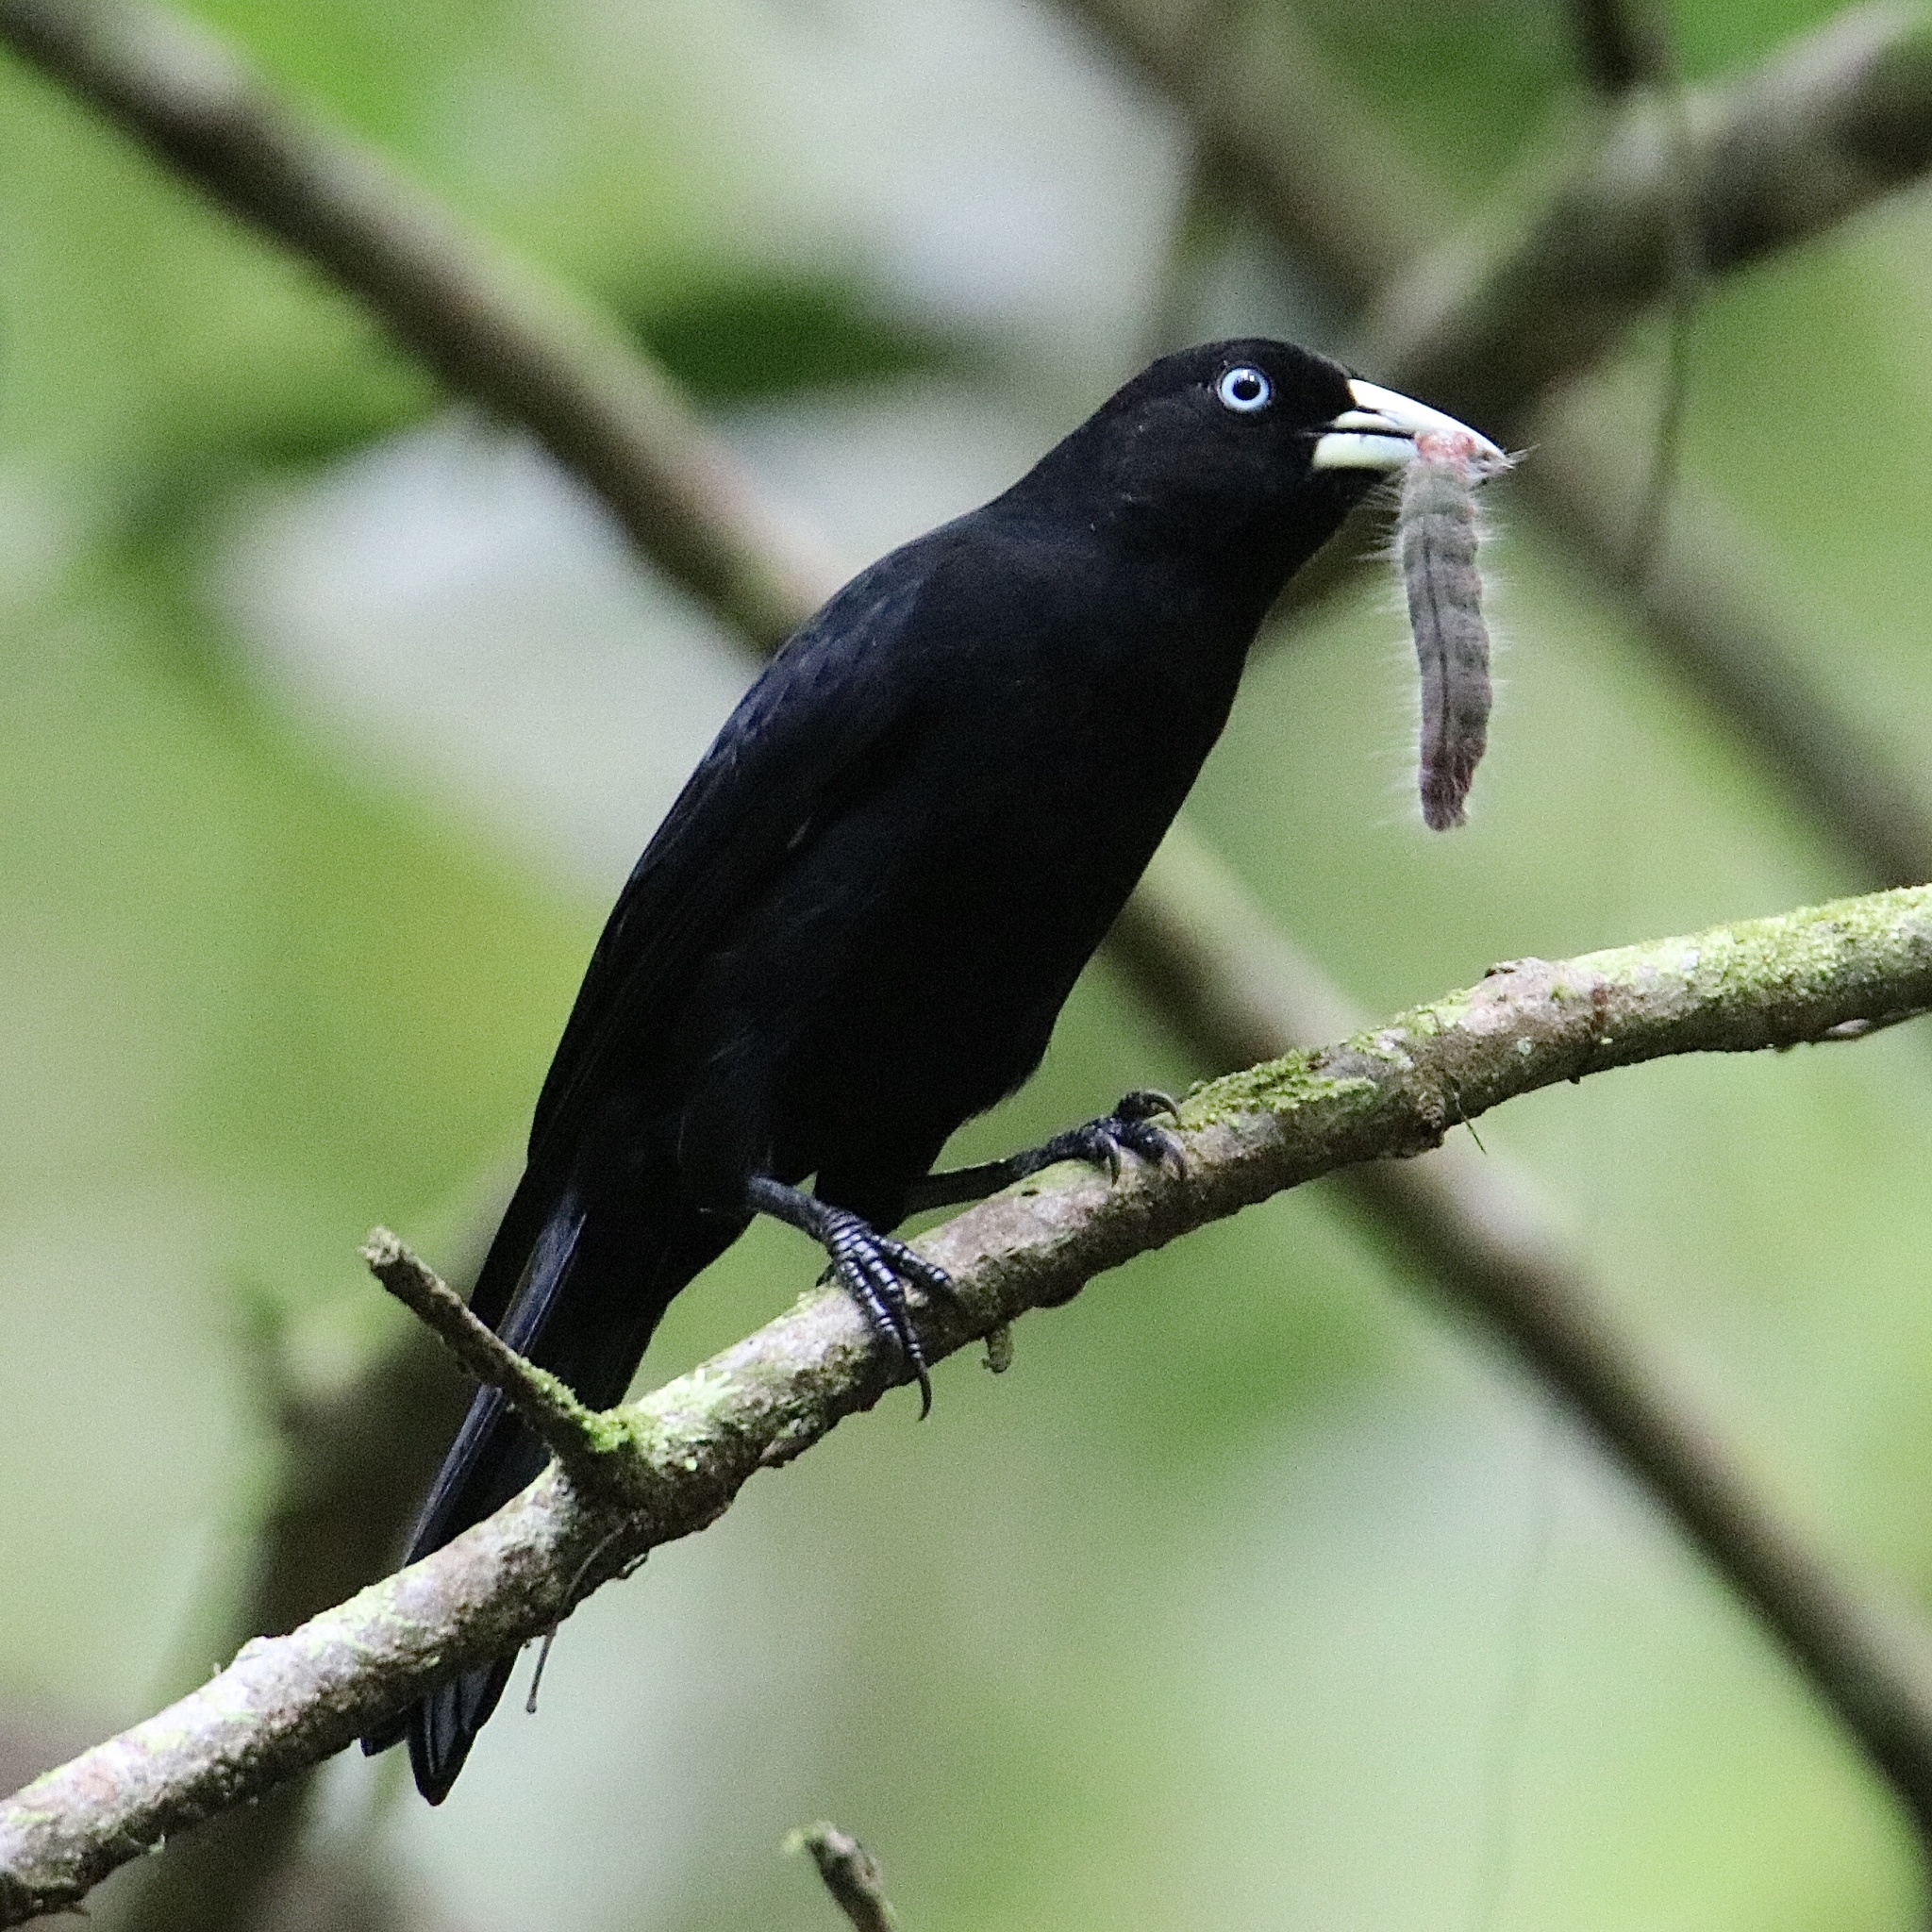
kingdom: Animalia
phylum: Chordata
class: Aves
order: Passeriformes
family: Icteridae
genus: Cacicus
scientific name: Cacicus uropygialis
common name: Scarlet-rumped cacique
